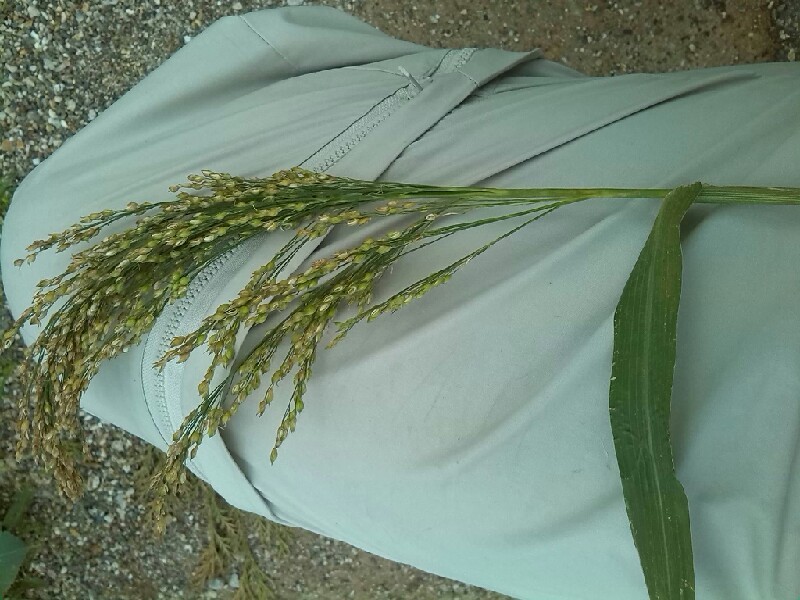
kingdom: Plantae
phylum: Tracheophyta
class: Liliopsida
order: Poales
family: Poaceae
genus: Panicum
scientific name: Panicum miliaceum
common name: Common millet
